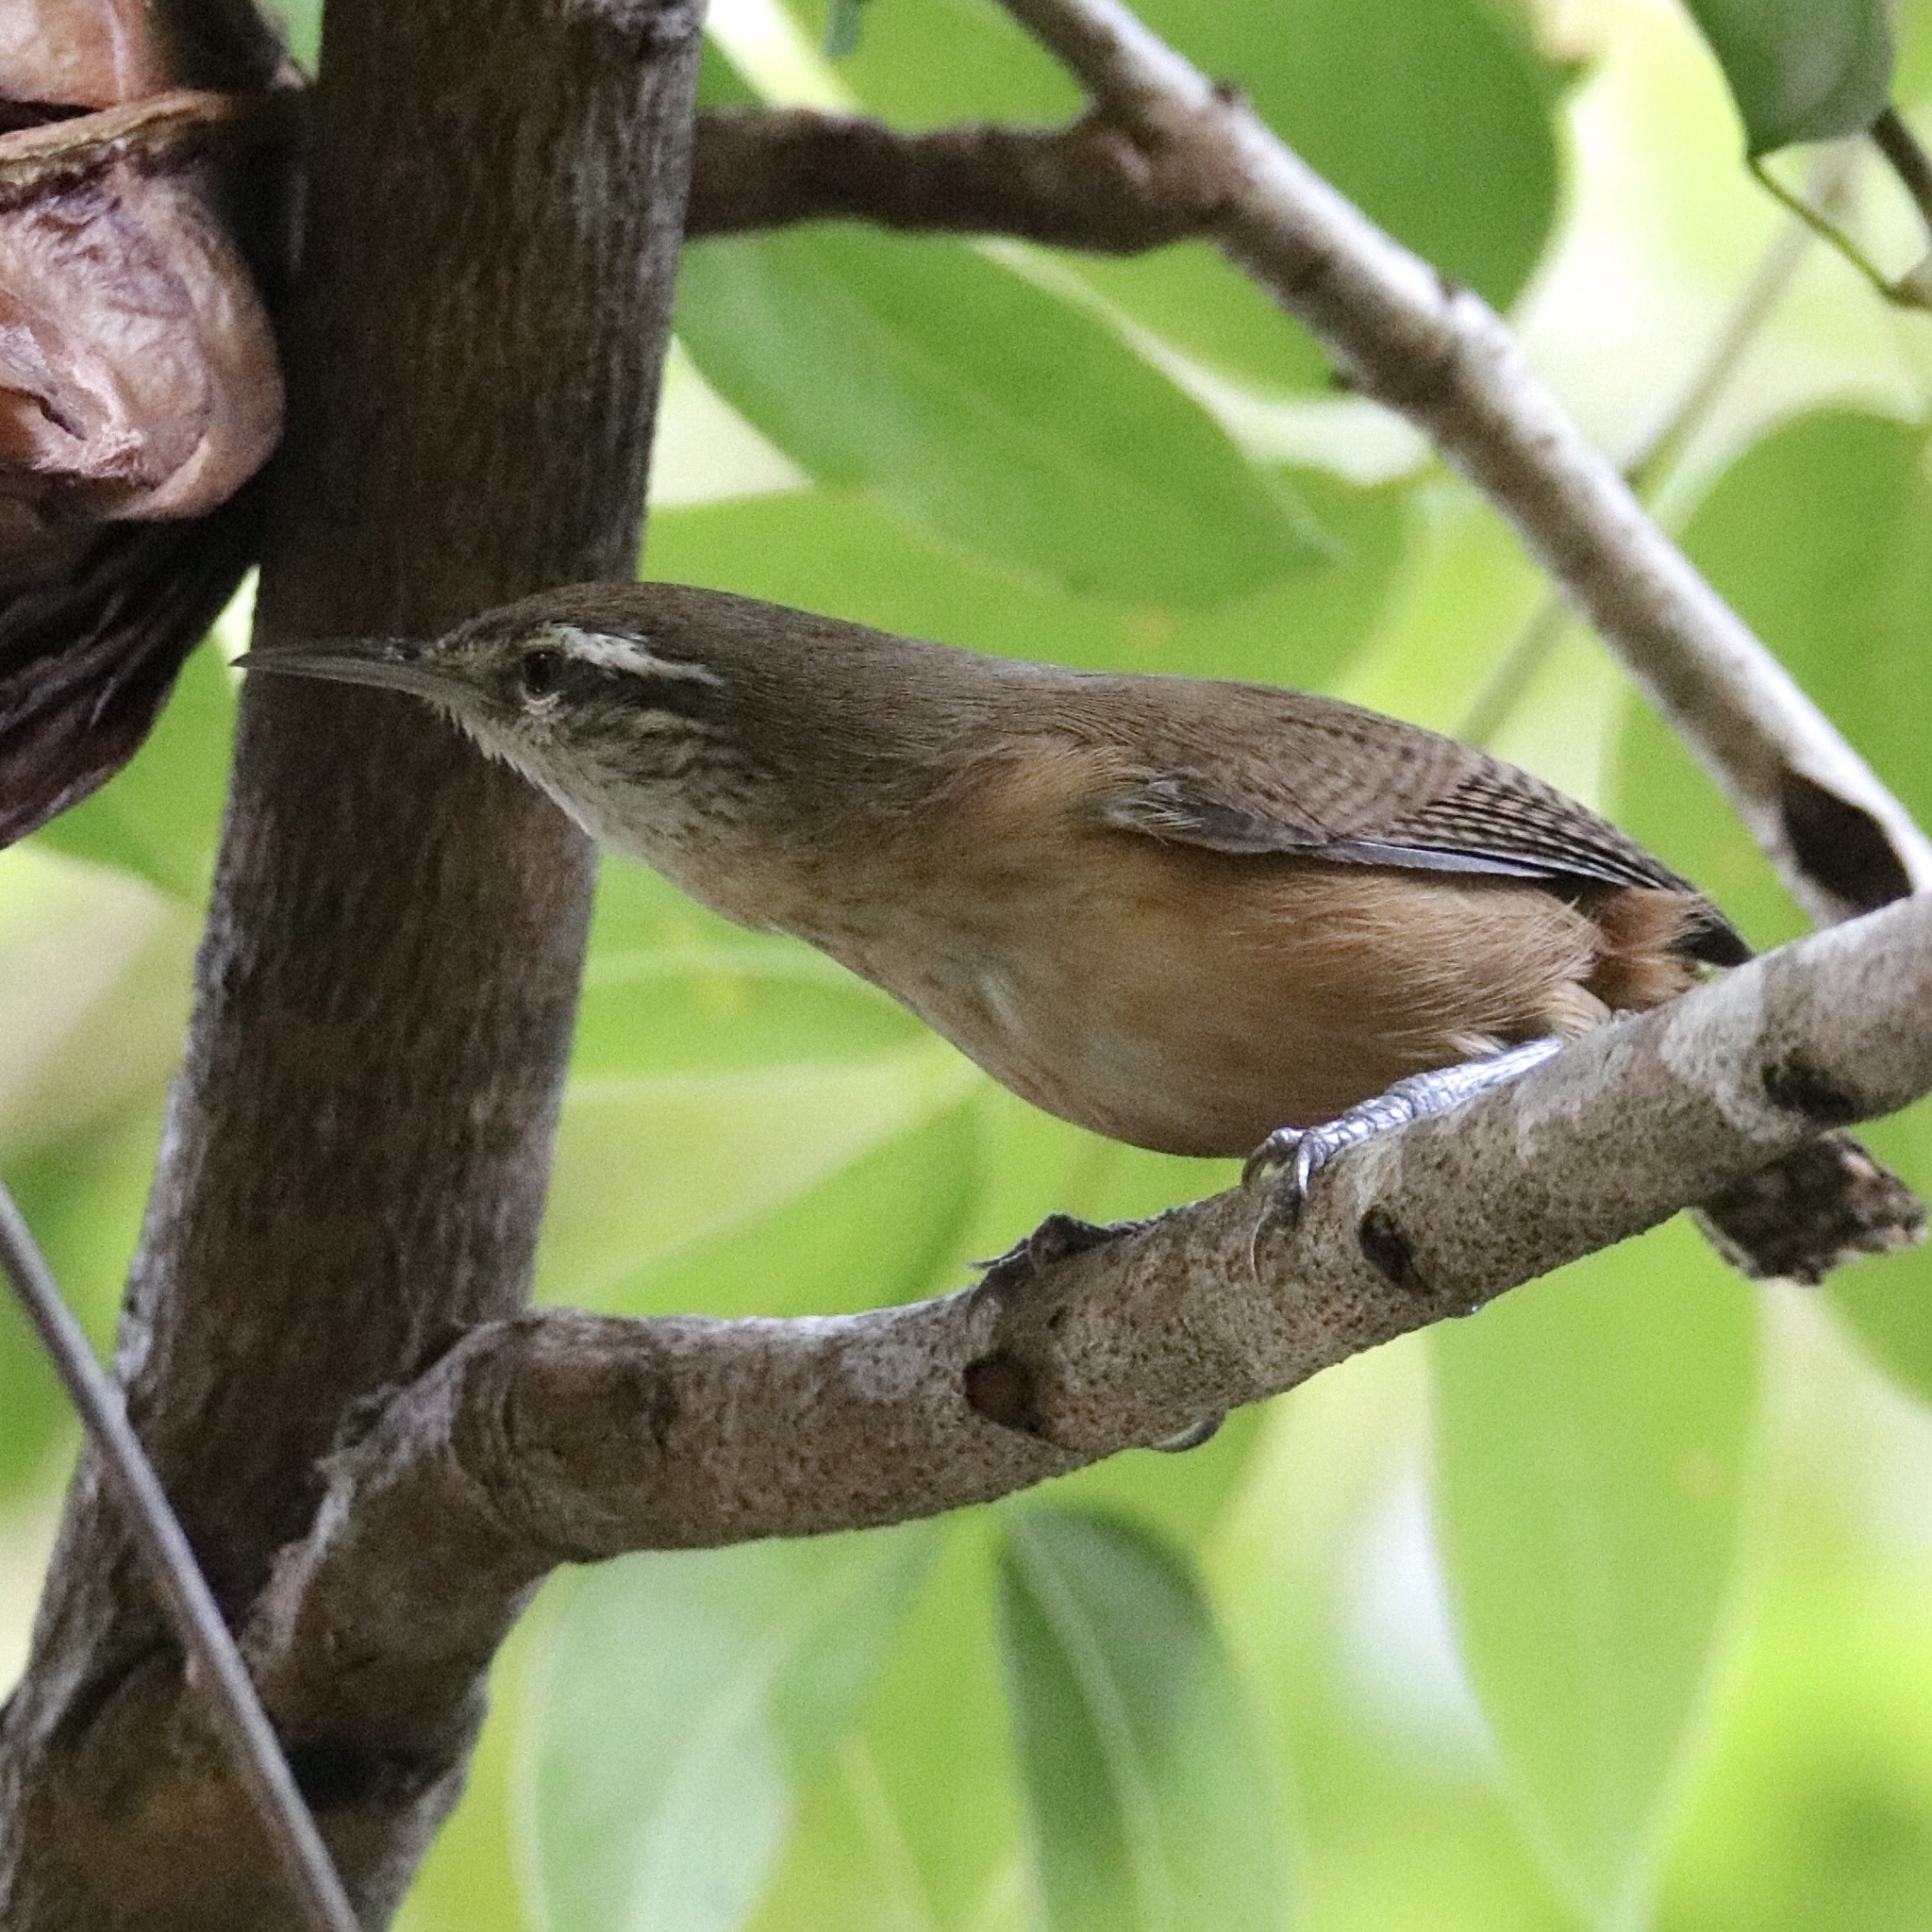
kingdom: Animalia
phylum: Chordata
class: Aves
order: Passeriformes
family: Troglodytidae
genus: Cantorchilus
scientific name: Cantorchilus leucotis
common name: Buff-breasted wren
